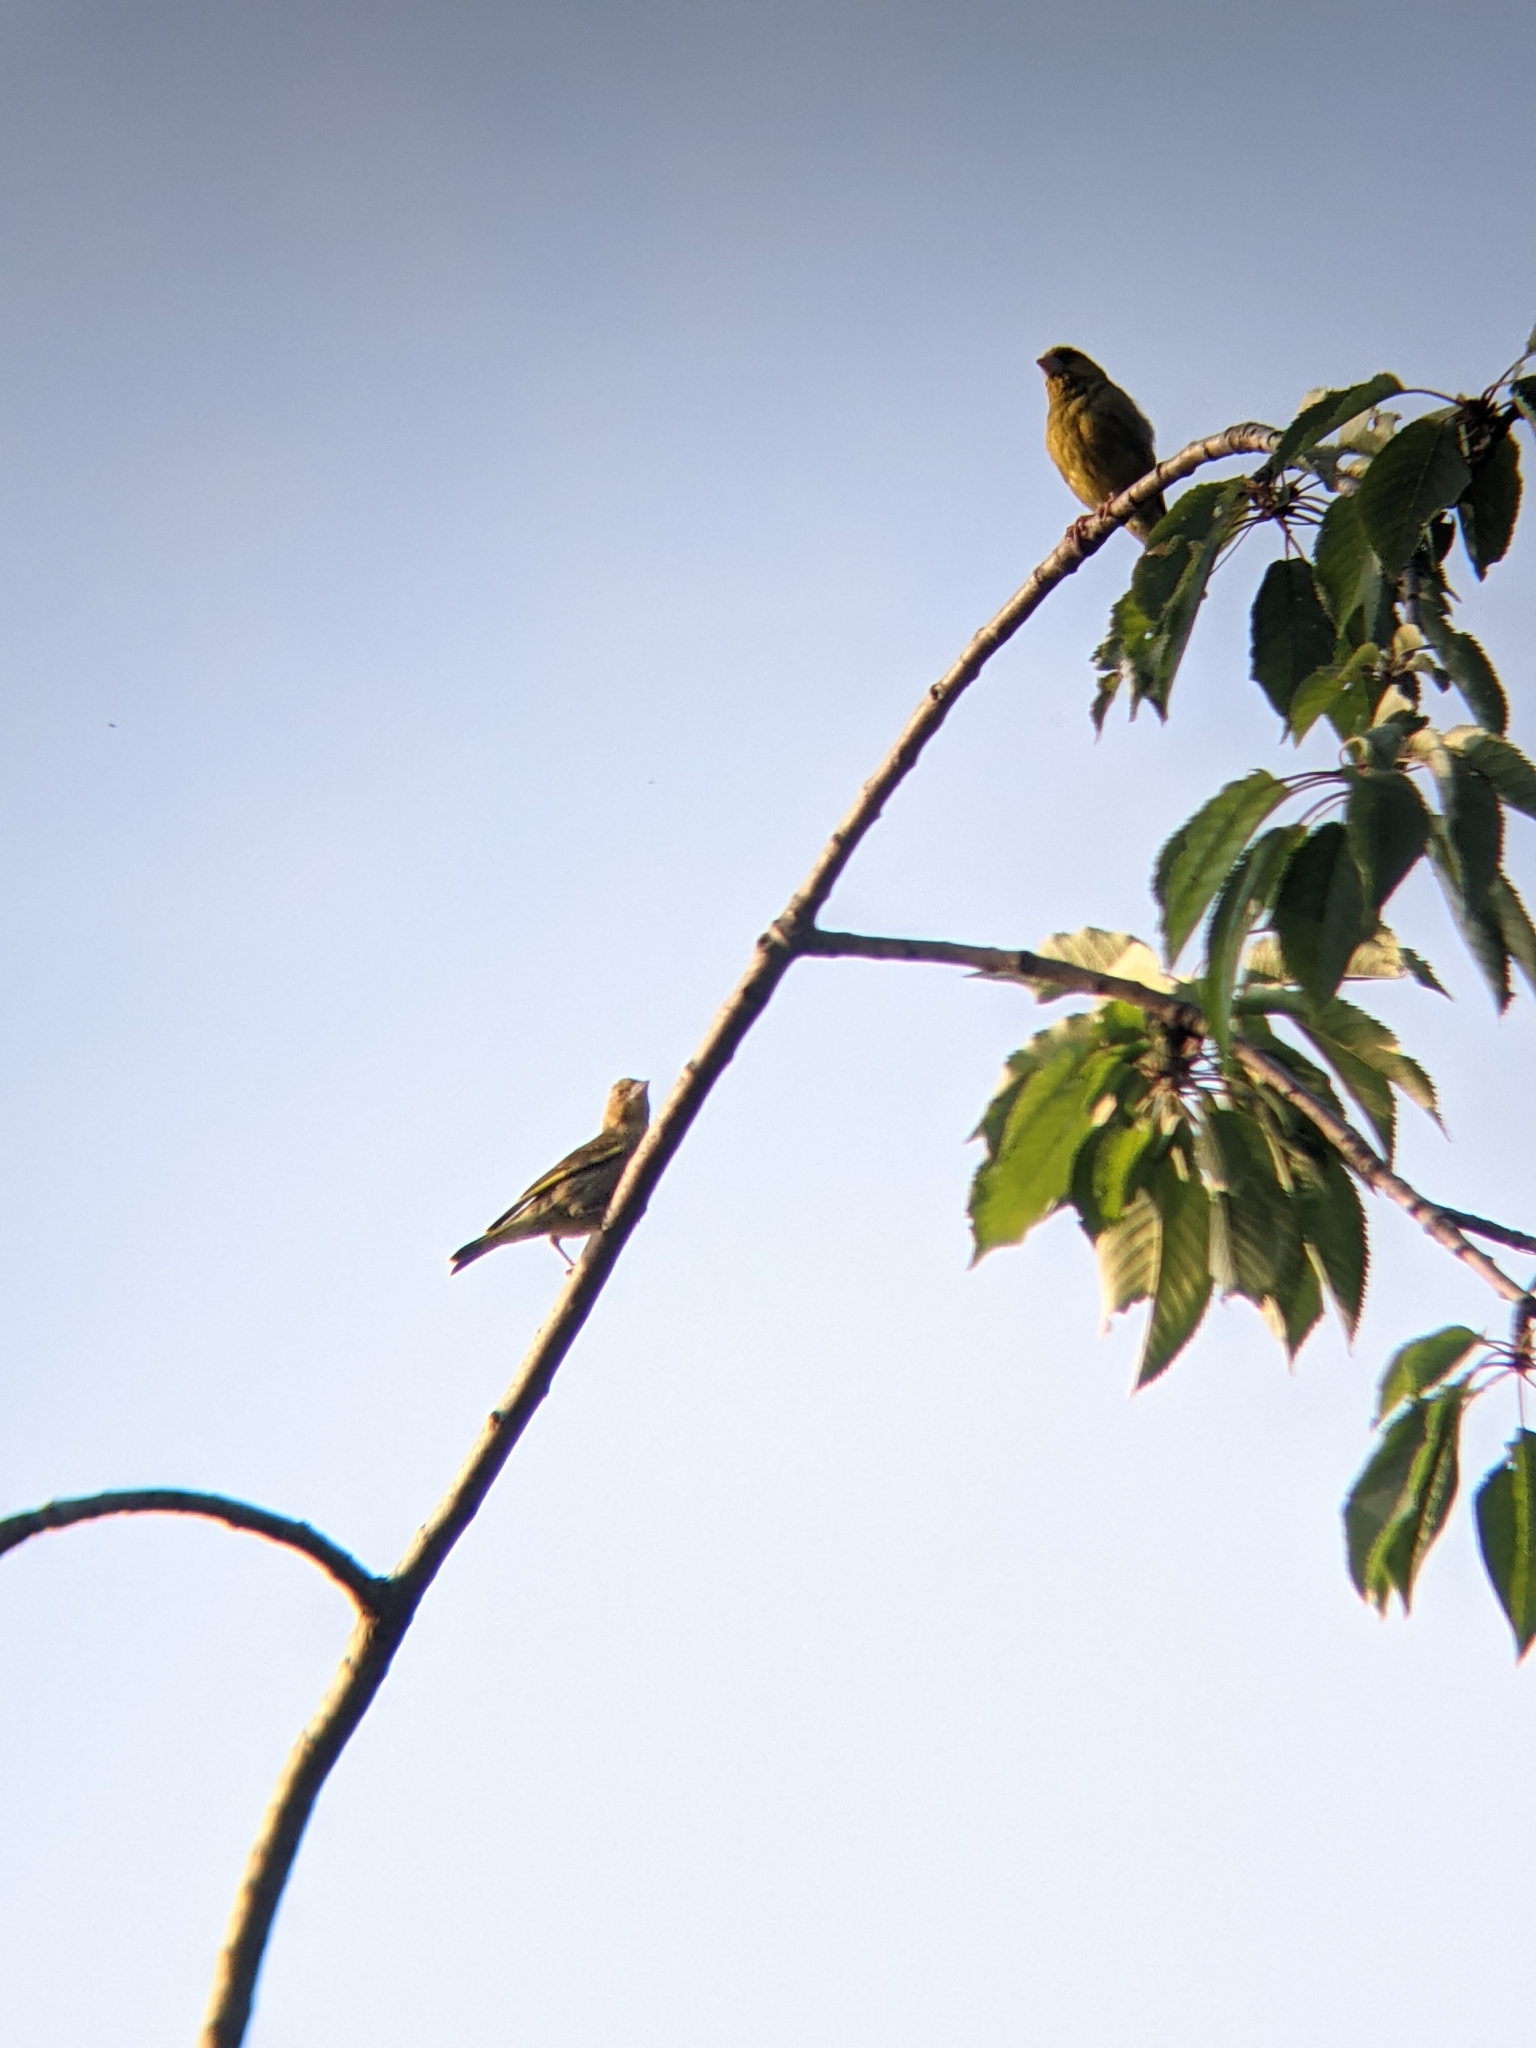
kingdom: Plantae
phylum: Tracheophyta
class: Liliopsida
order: Poales
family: Poaceae
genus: Chloris
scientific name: Chloris chloris
